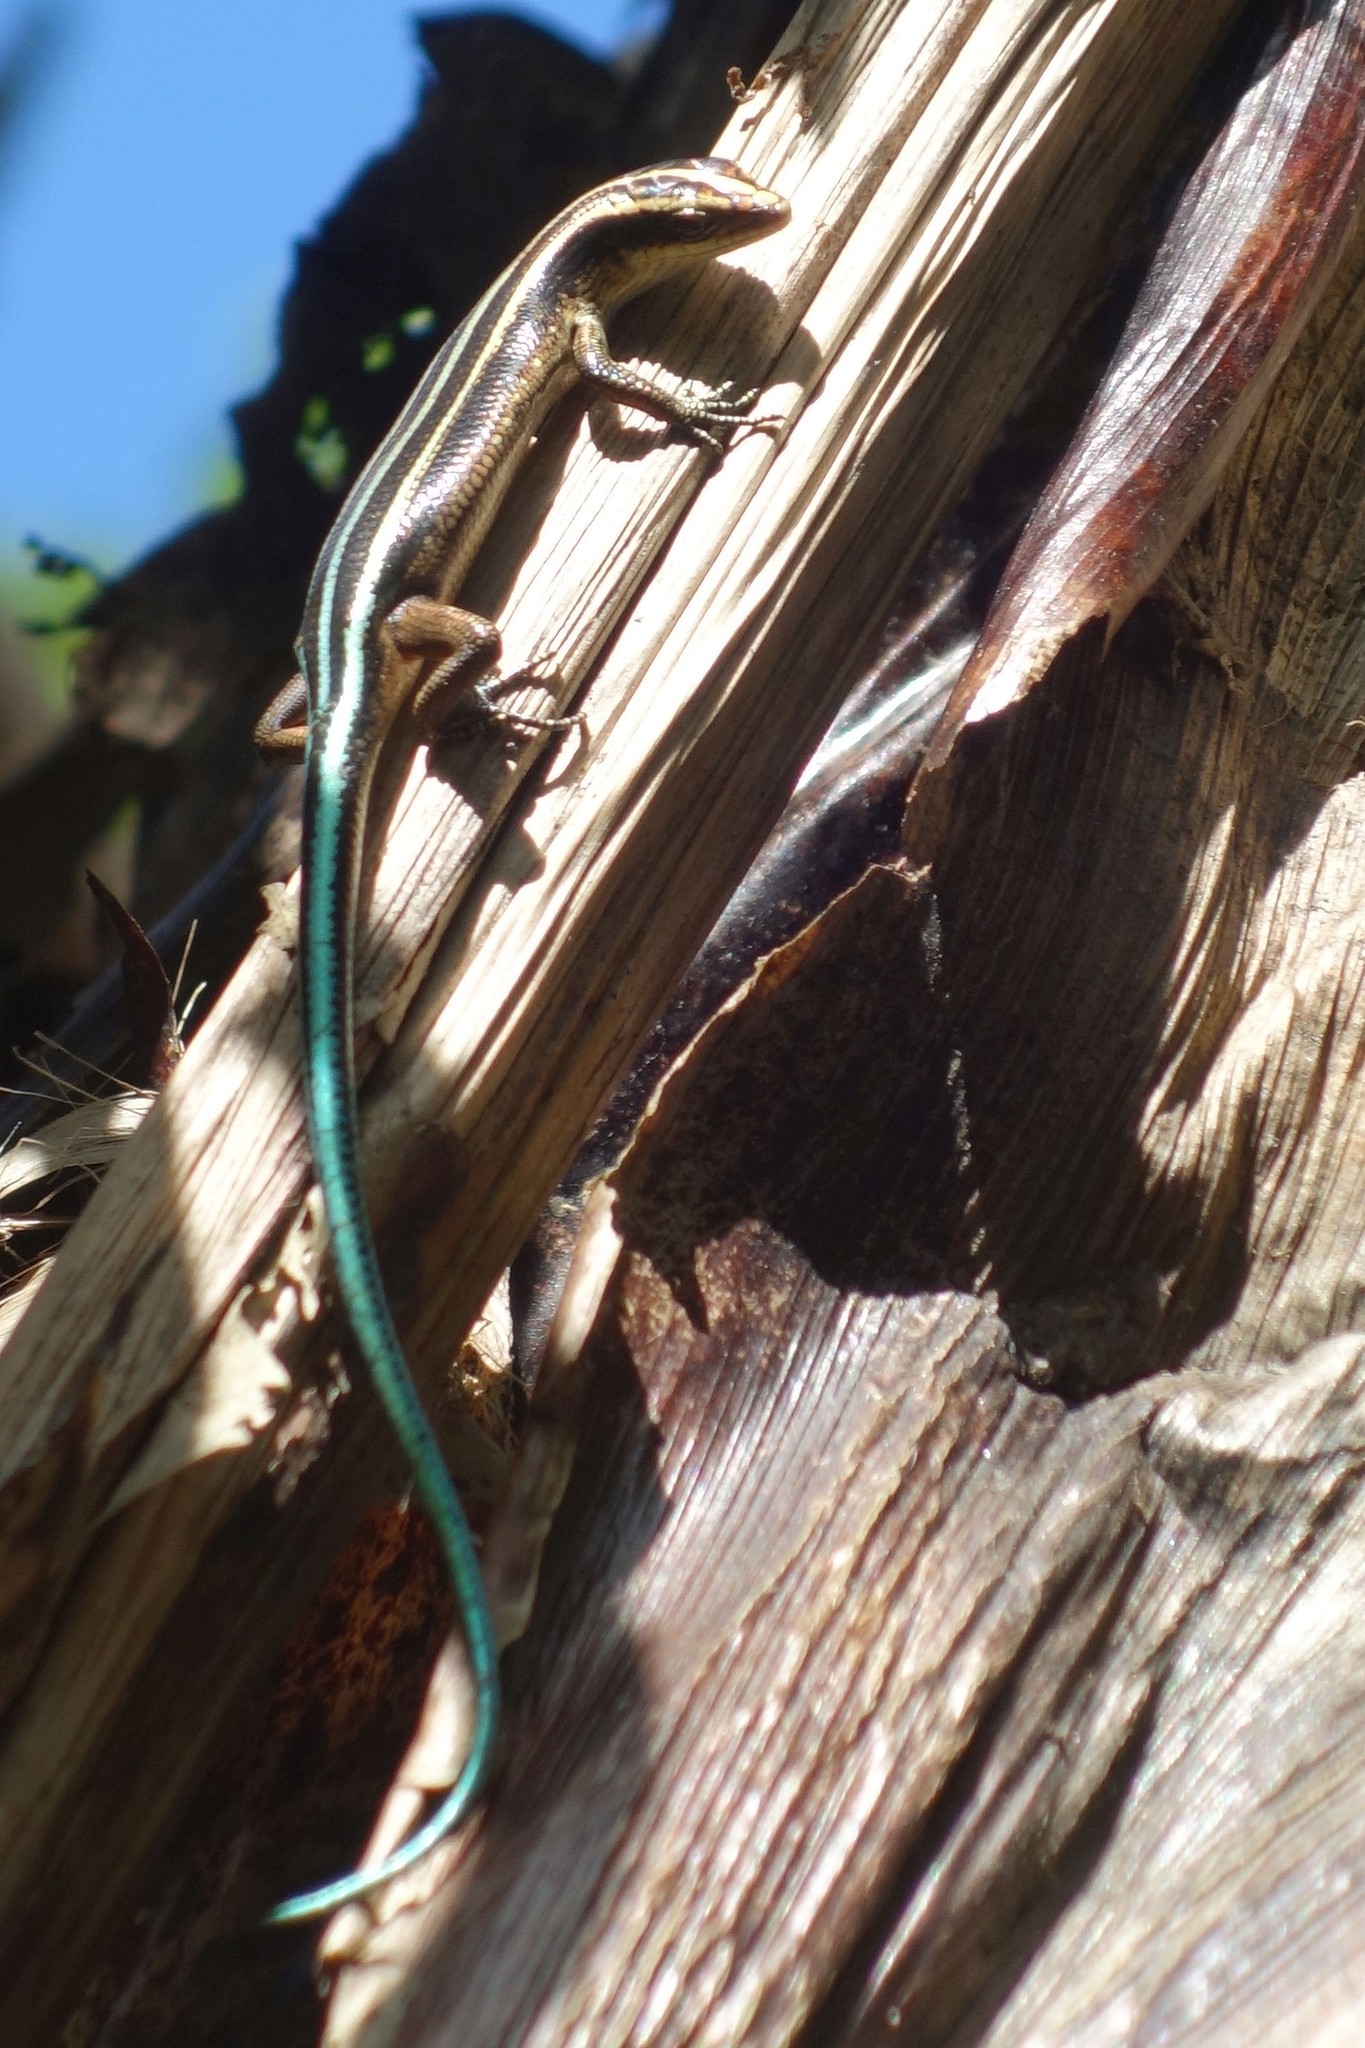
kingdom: Animalia
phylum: Chordata
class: Squamata
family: Scincidae
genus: Emoia
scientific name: Emoia caeruleocauda
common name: Pacific bluetail skink
